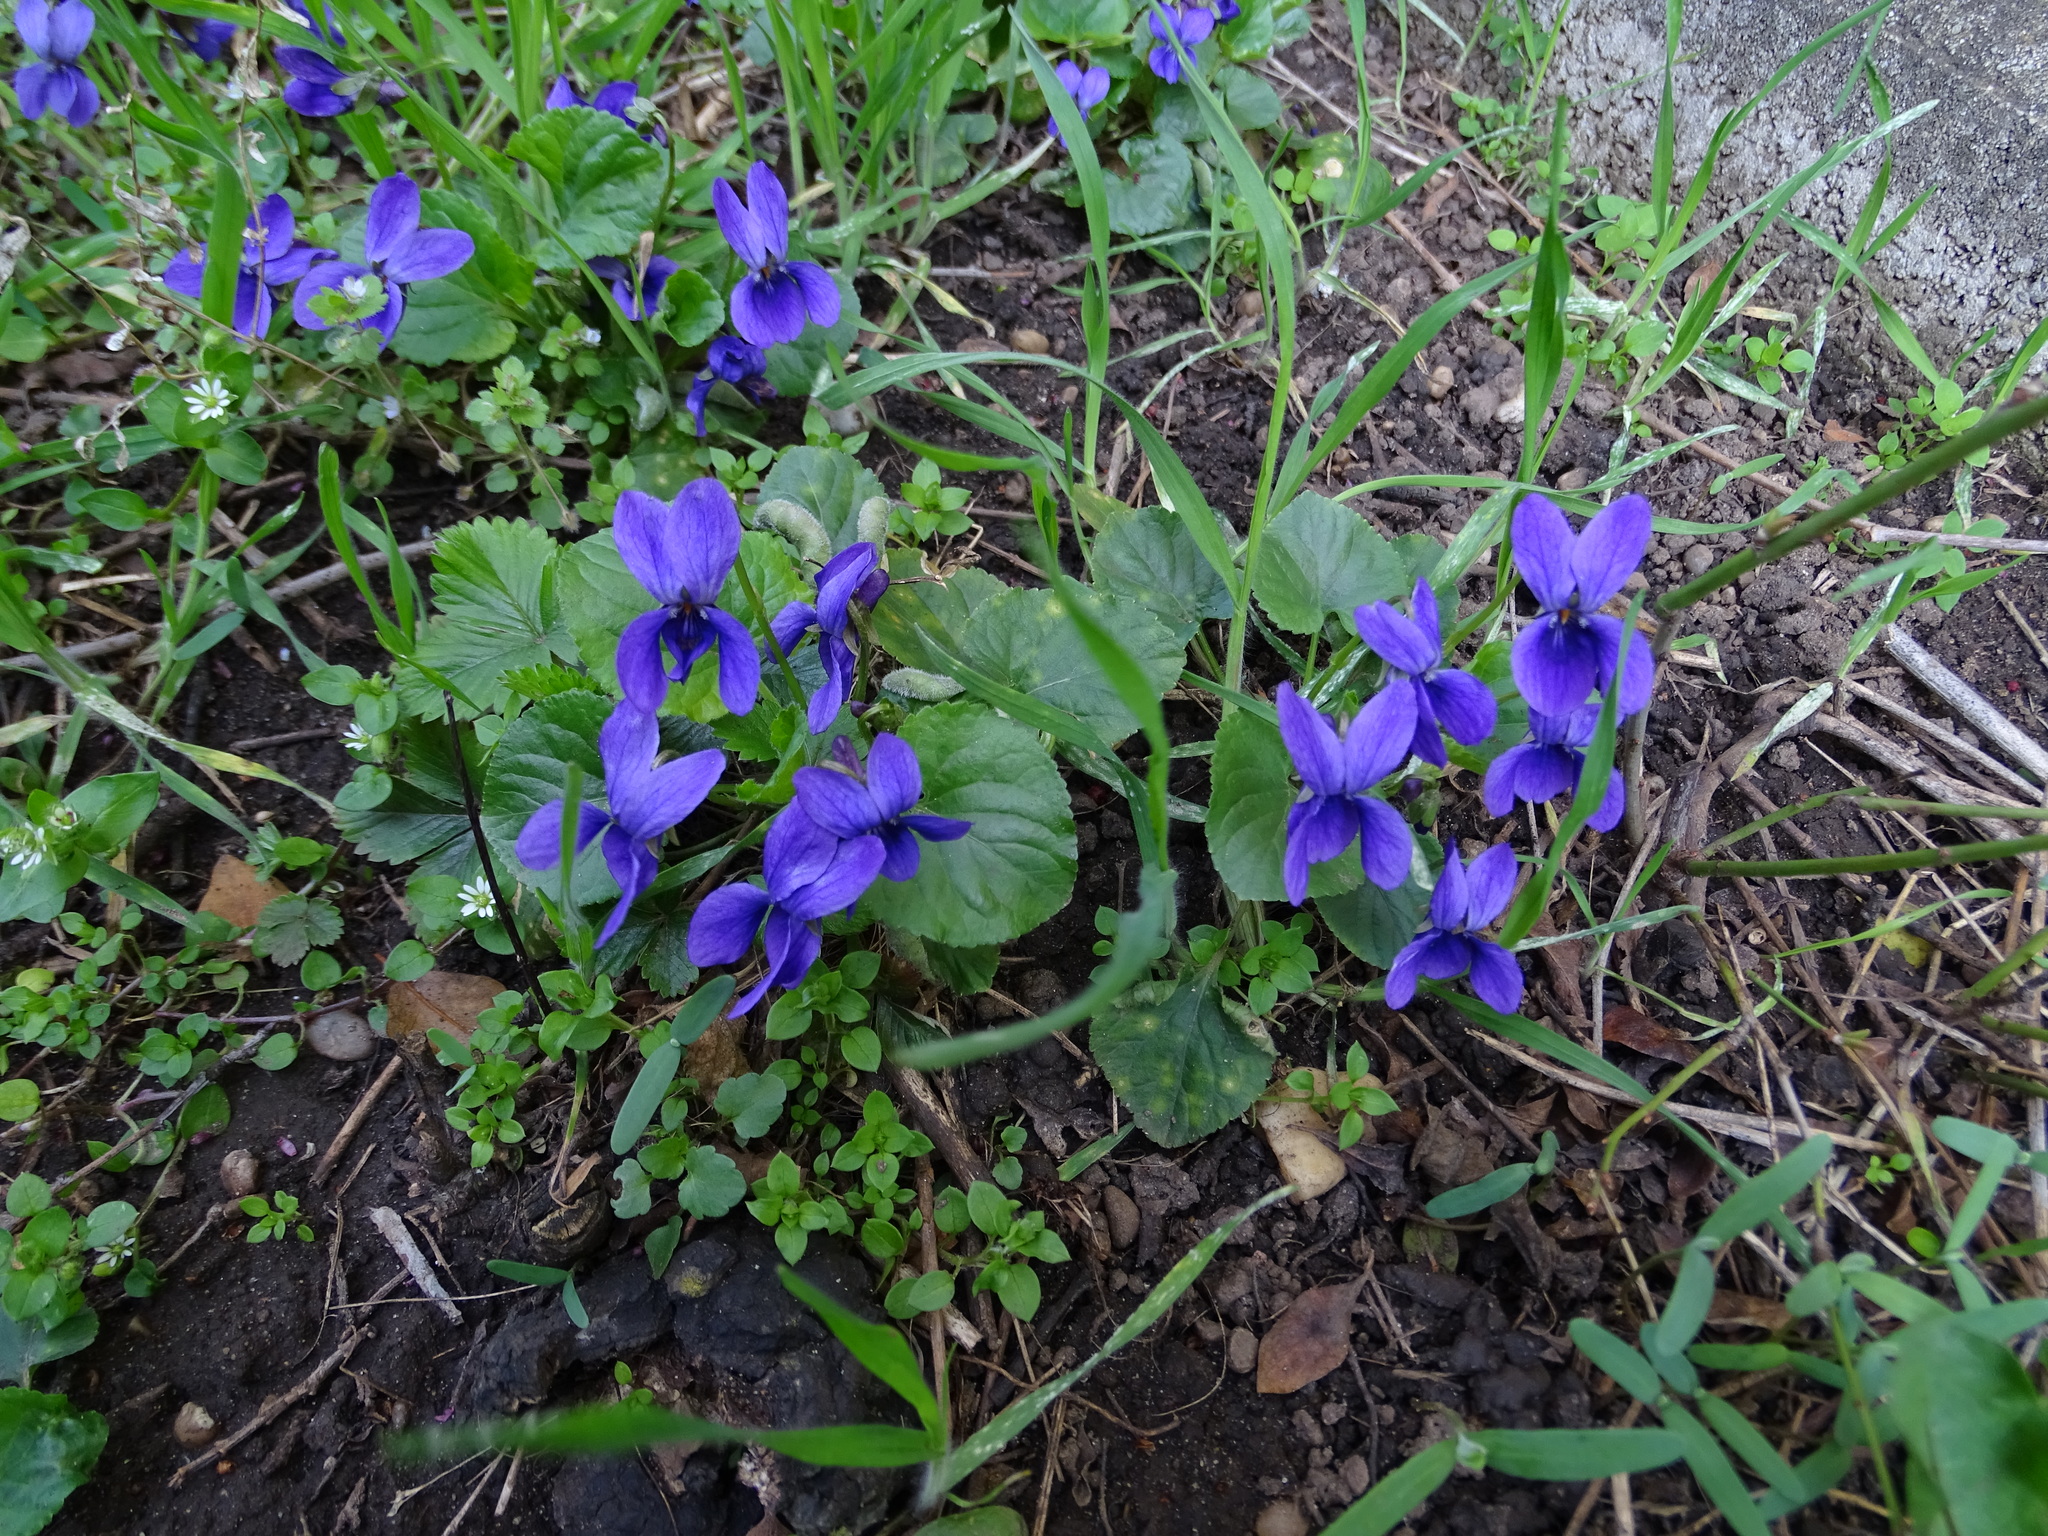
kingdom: Plantae
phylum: Tracheophyta
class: Magnoliopsida
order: Malpighiales
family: Violaceae
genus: Viola
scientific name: Viola odorata
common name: Sweet violet
